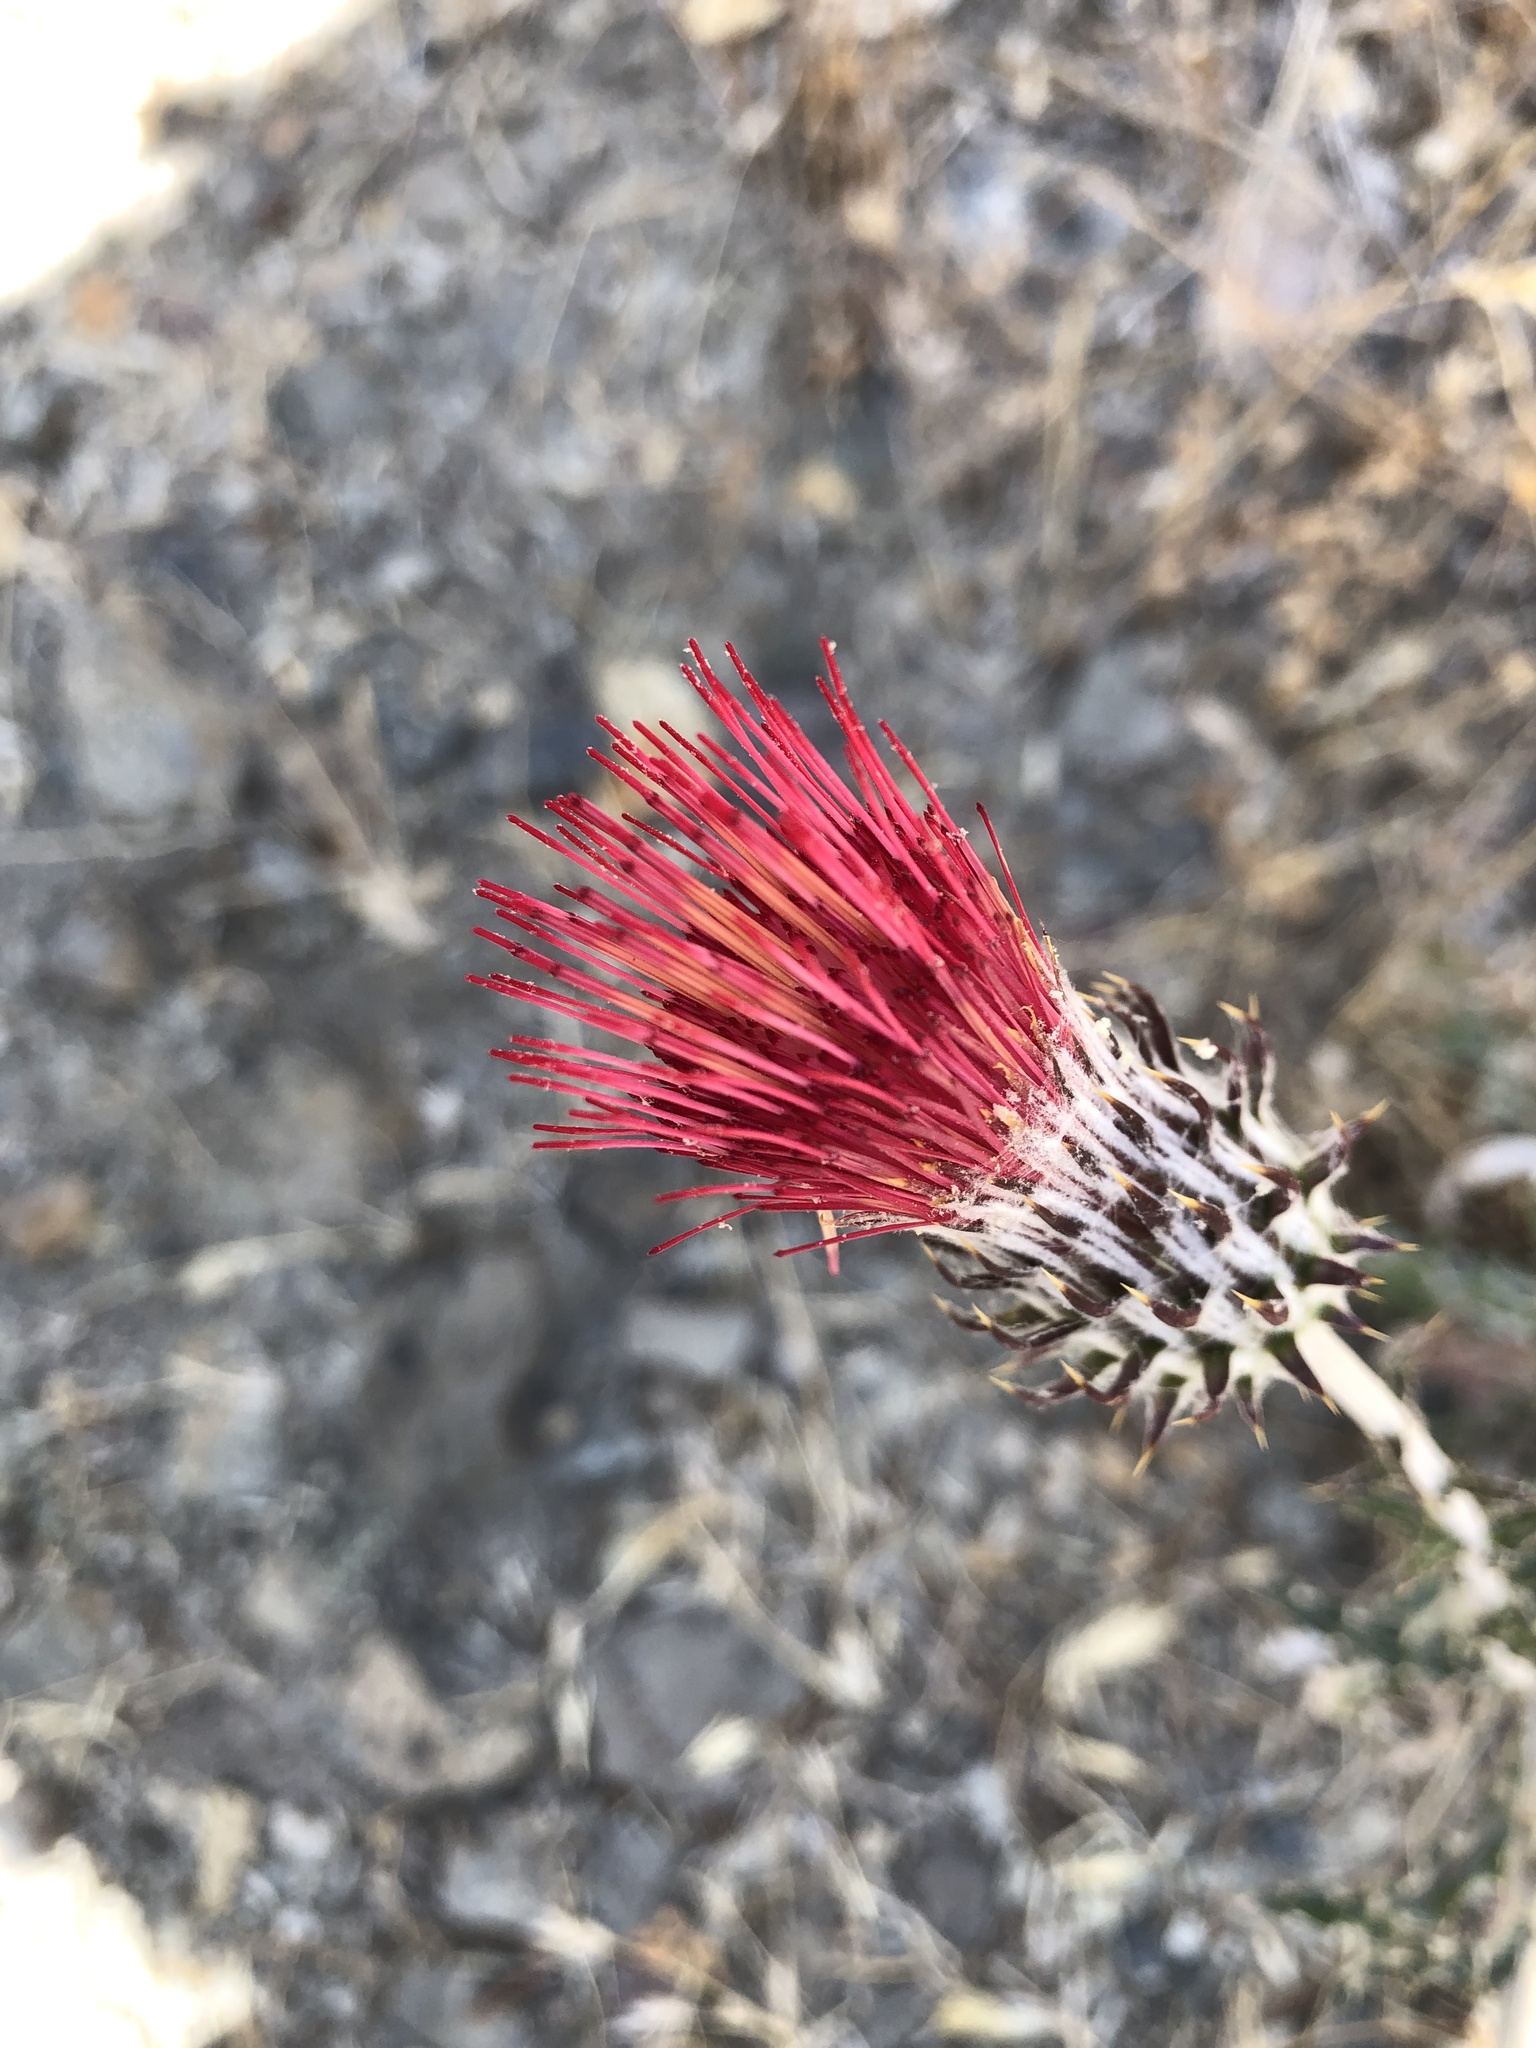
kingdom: Plantae
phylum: Tracheophyta
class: Magnoliopsida
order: Asterales
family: Asteraceae
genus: Cirsium
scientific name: Cirsium occidentale
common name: Western thistle
